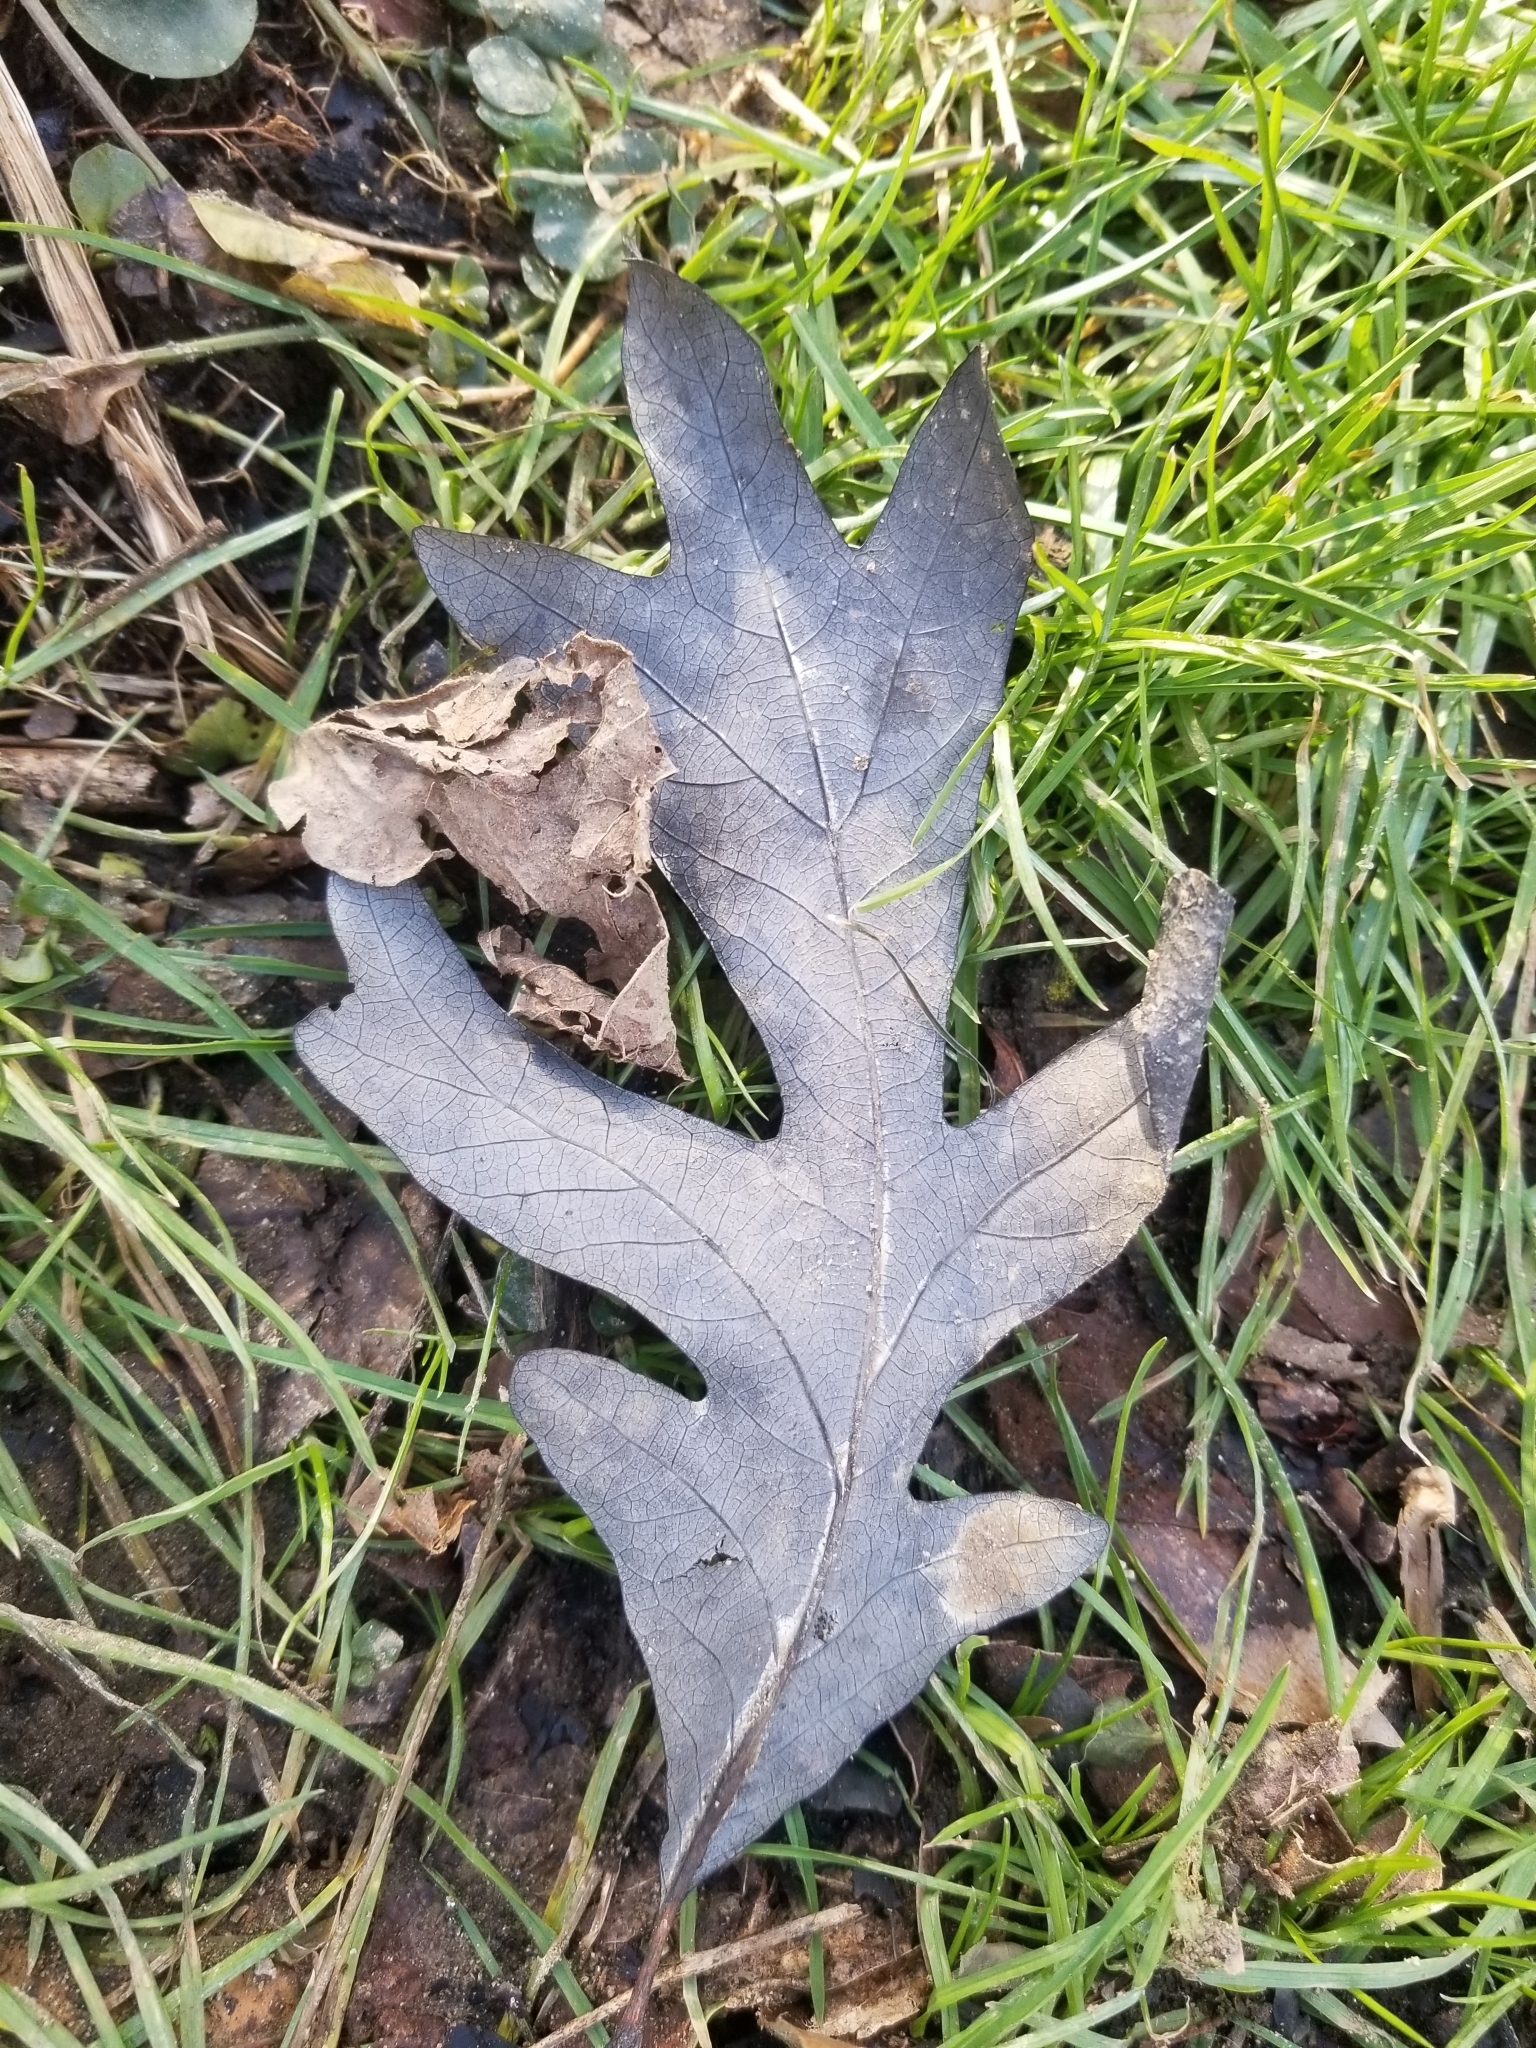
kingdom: Plantae
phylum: Tracheophyta
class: Magnoliopsida
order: Fagales
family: Fagaceae
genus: Quercus
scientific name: Quercus alba
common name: White oak
